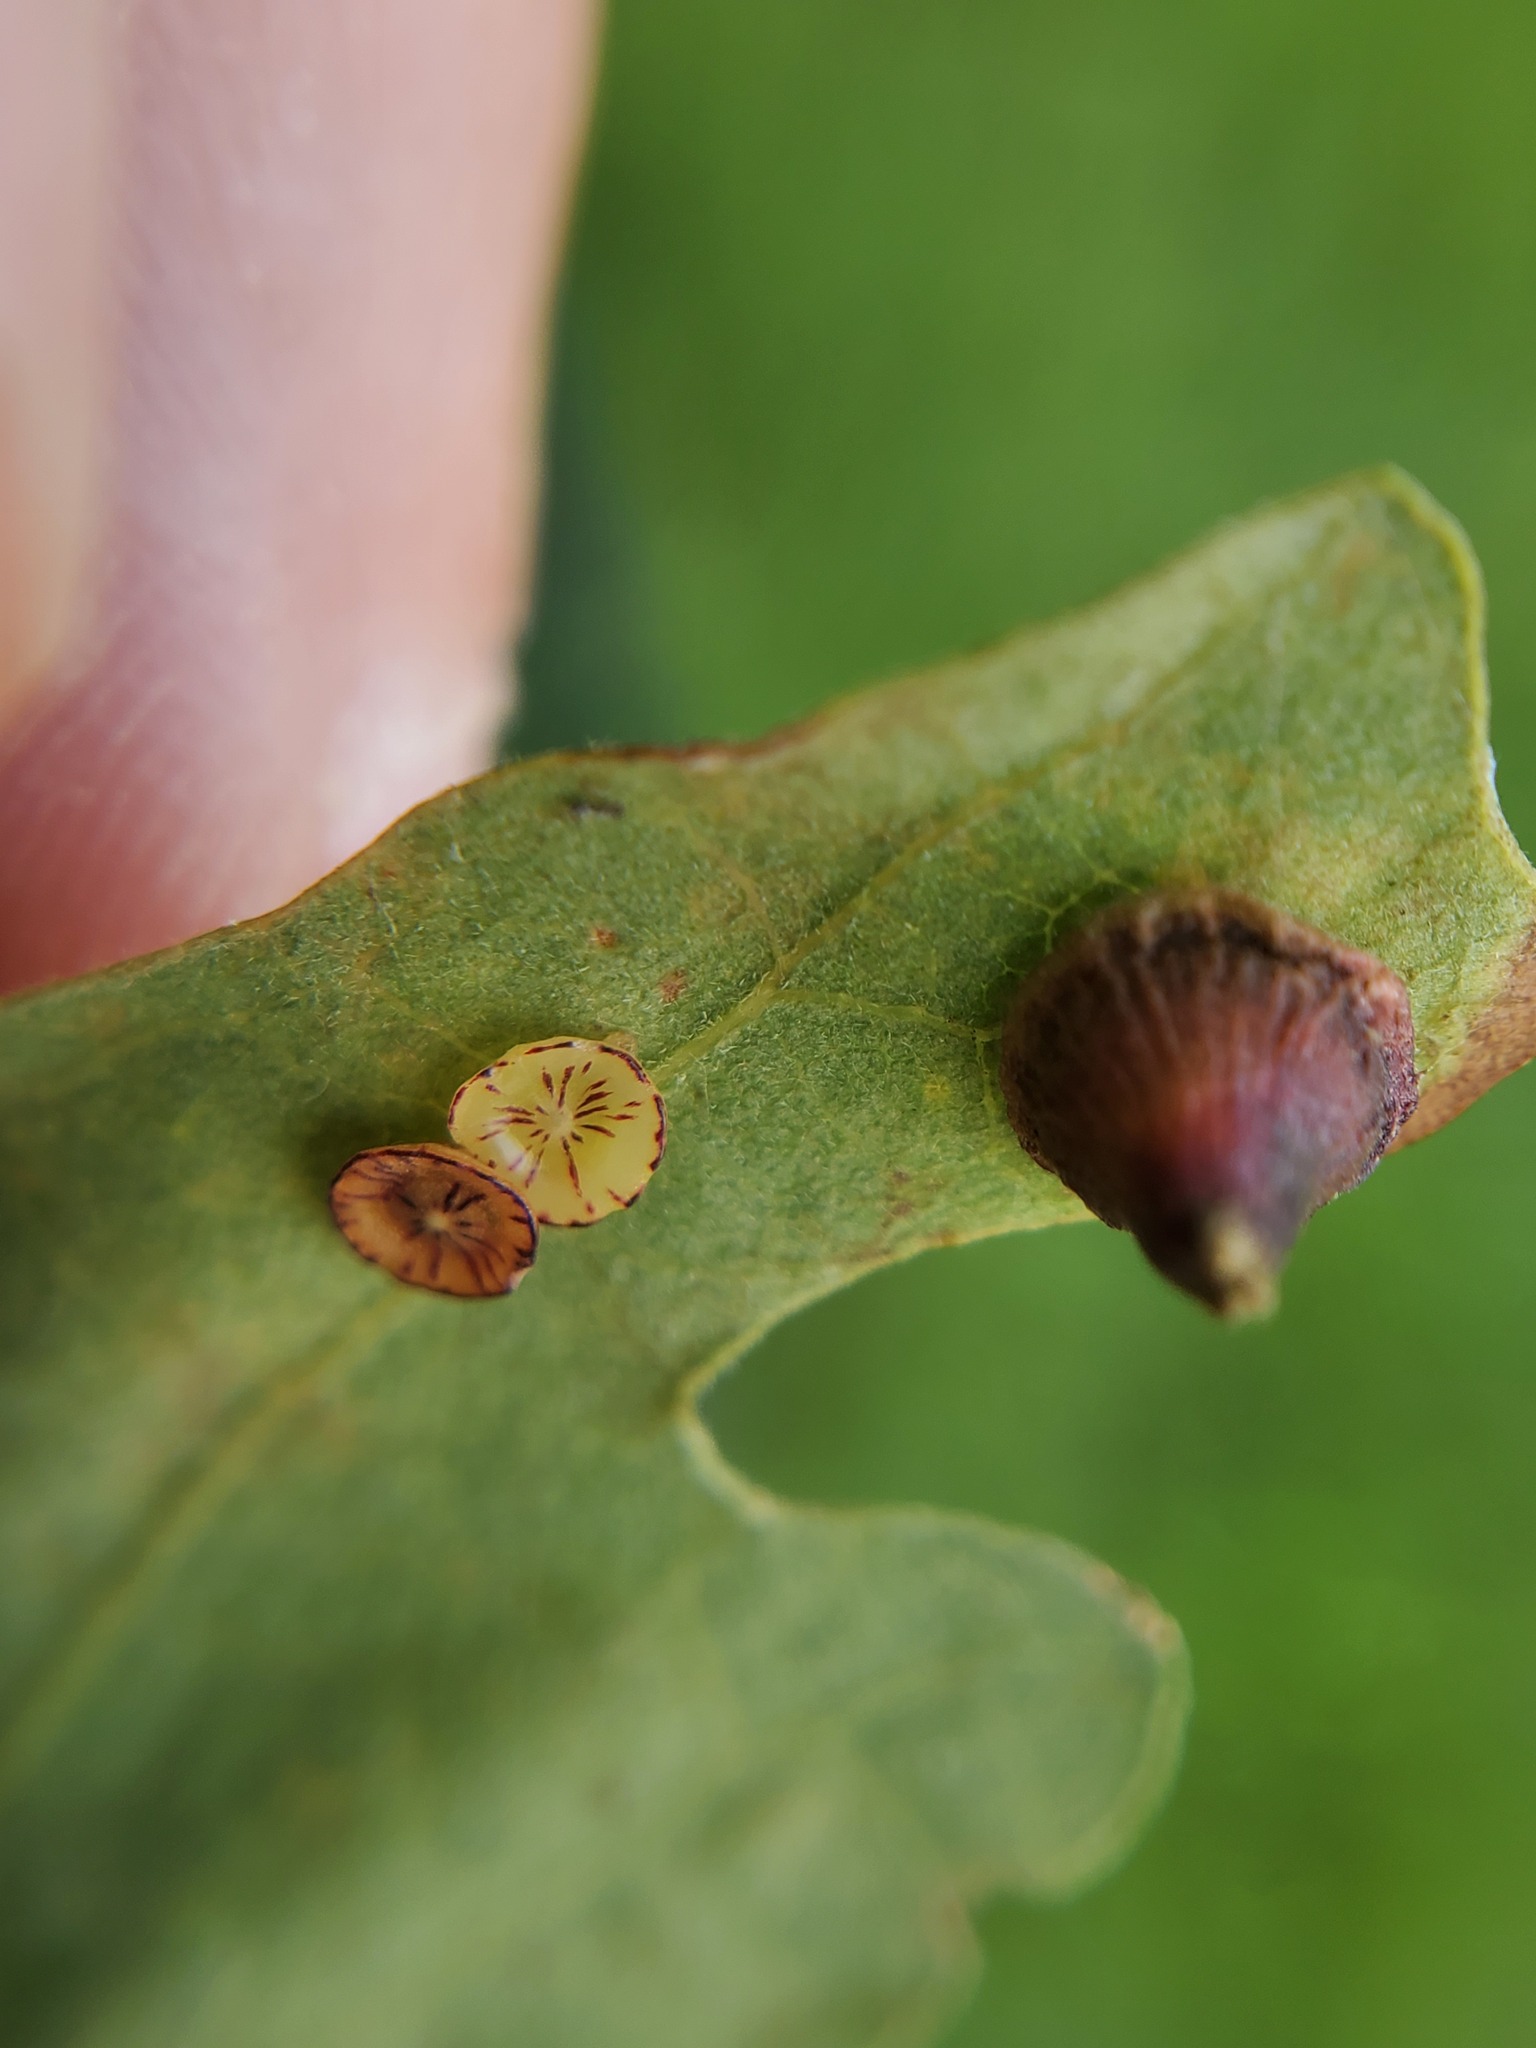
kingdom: Animalia
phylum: Arthropoda
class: Insecta
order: Hymenoptera
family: Cynipidae
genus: Andricus
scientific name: Andricus
